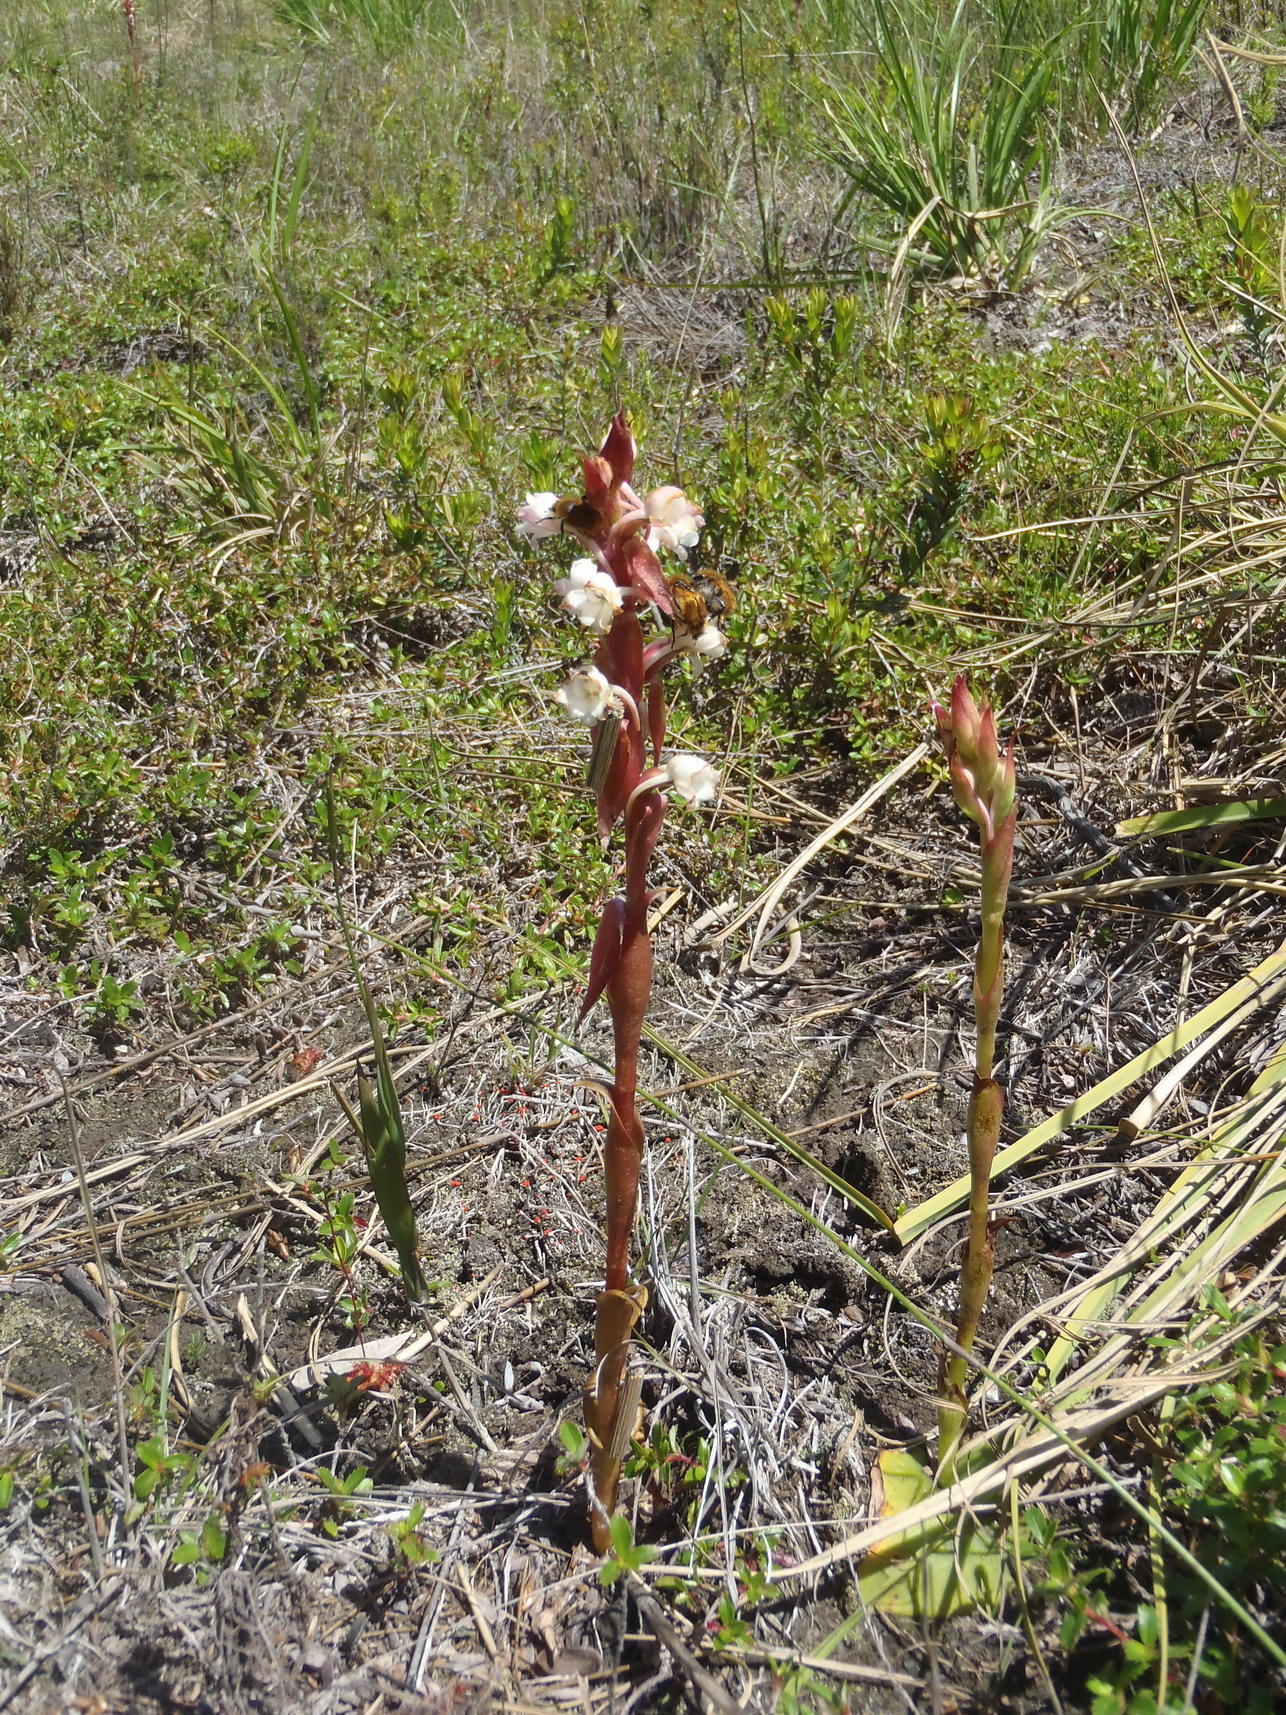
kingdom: Plantae
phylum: Tracheophyta
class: Liliopsida
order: Asparagales
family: Orchidaceae
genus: Satyrium
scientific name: Satyrium acuminatum
